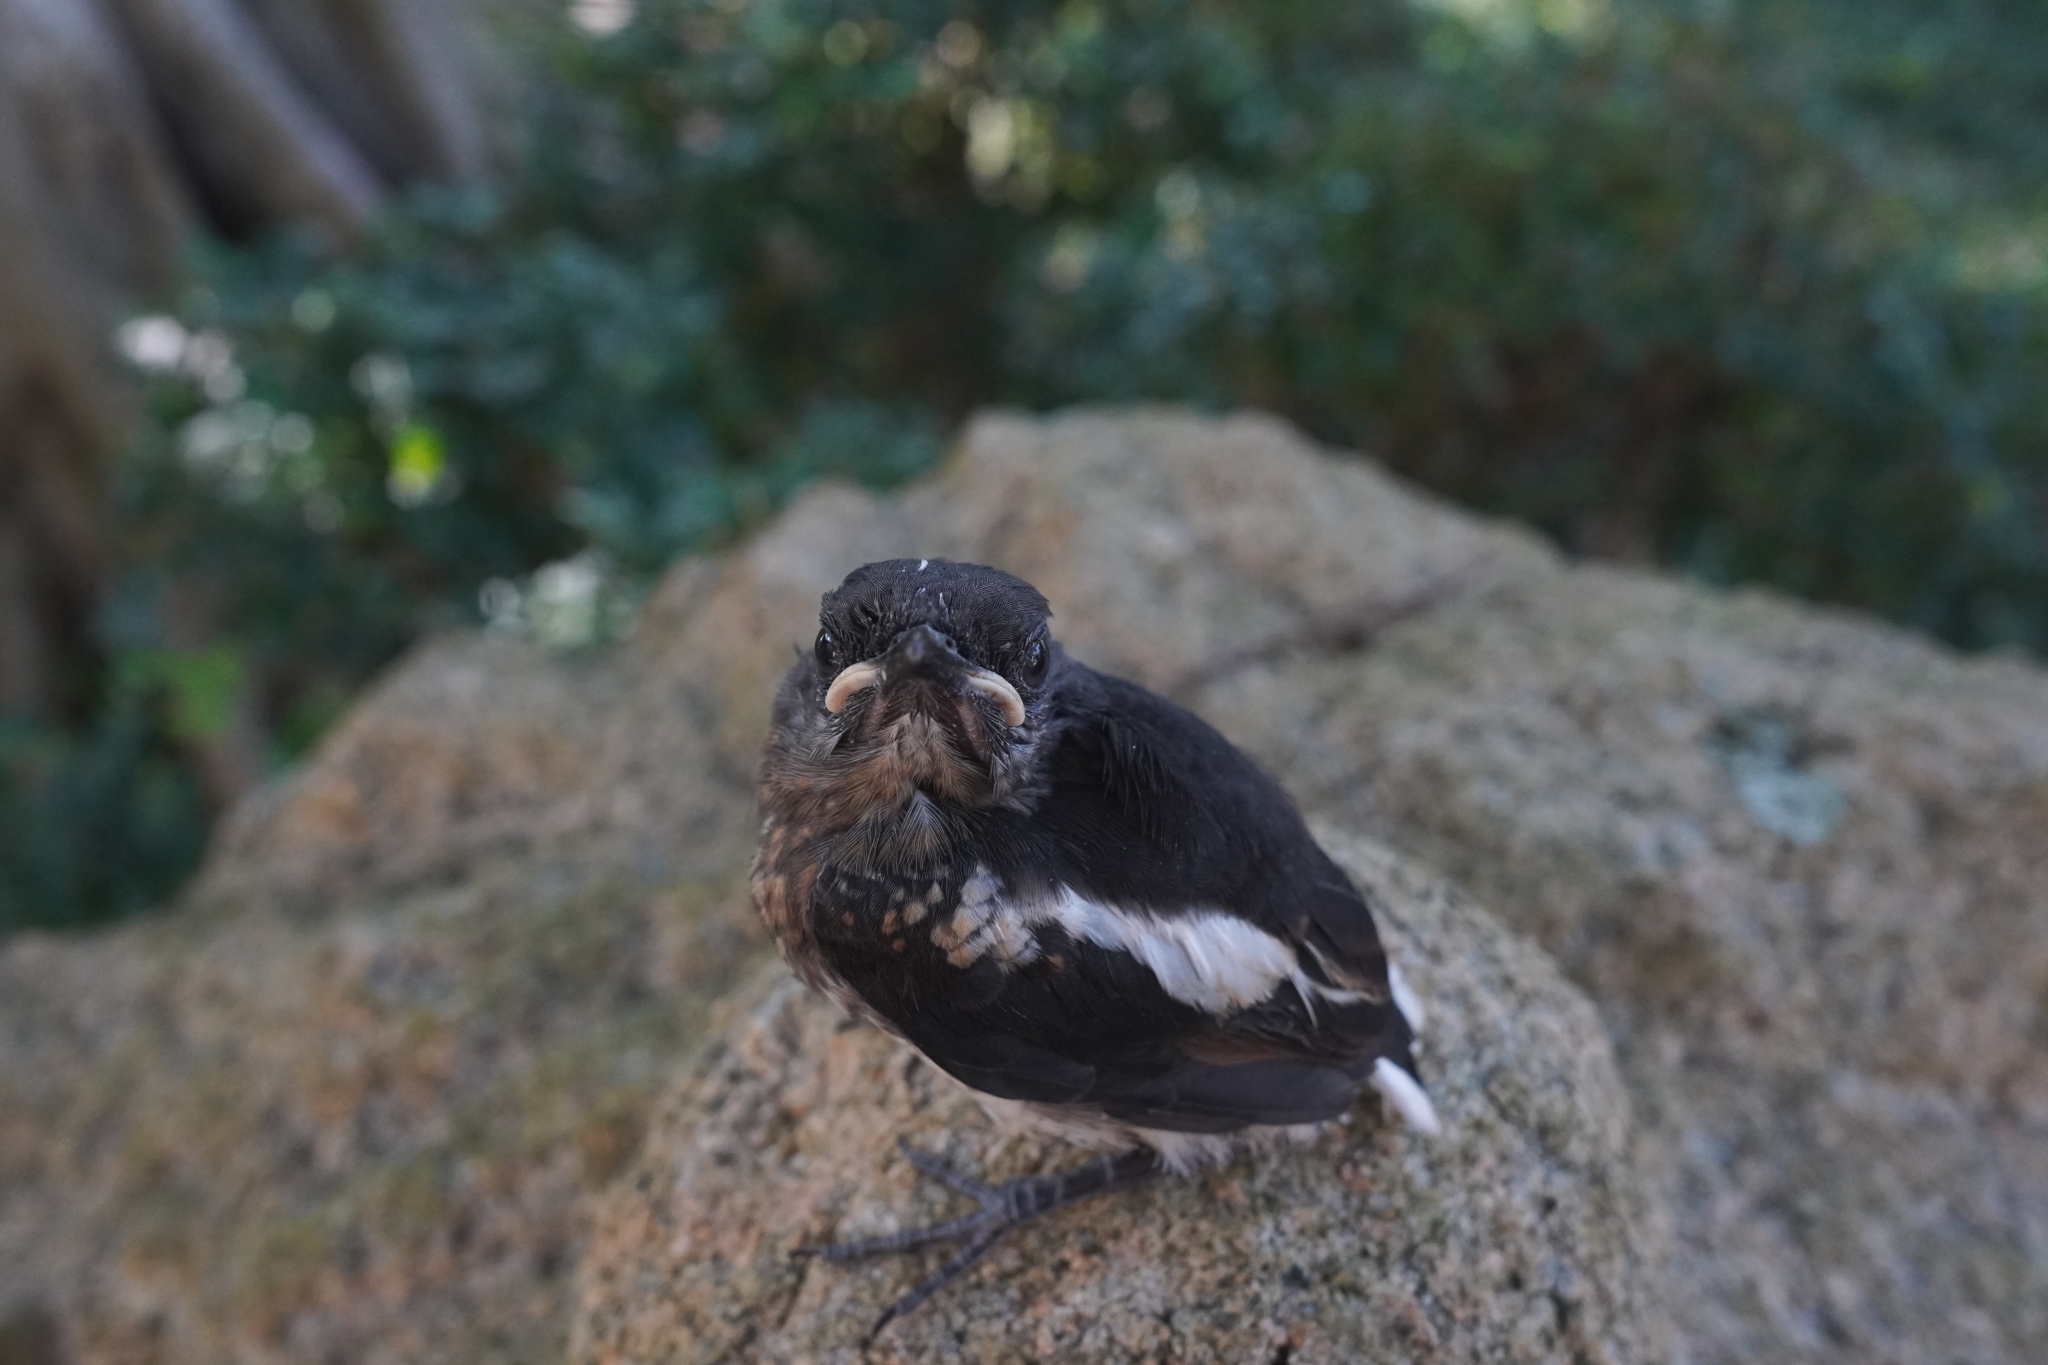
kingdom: Animalia
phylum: Chordata
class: Aves
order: Passeriformes
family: Muscicapidae
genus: Copsychus
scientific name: Copsychus saularis
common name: Oriental magpie-robin
